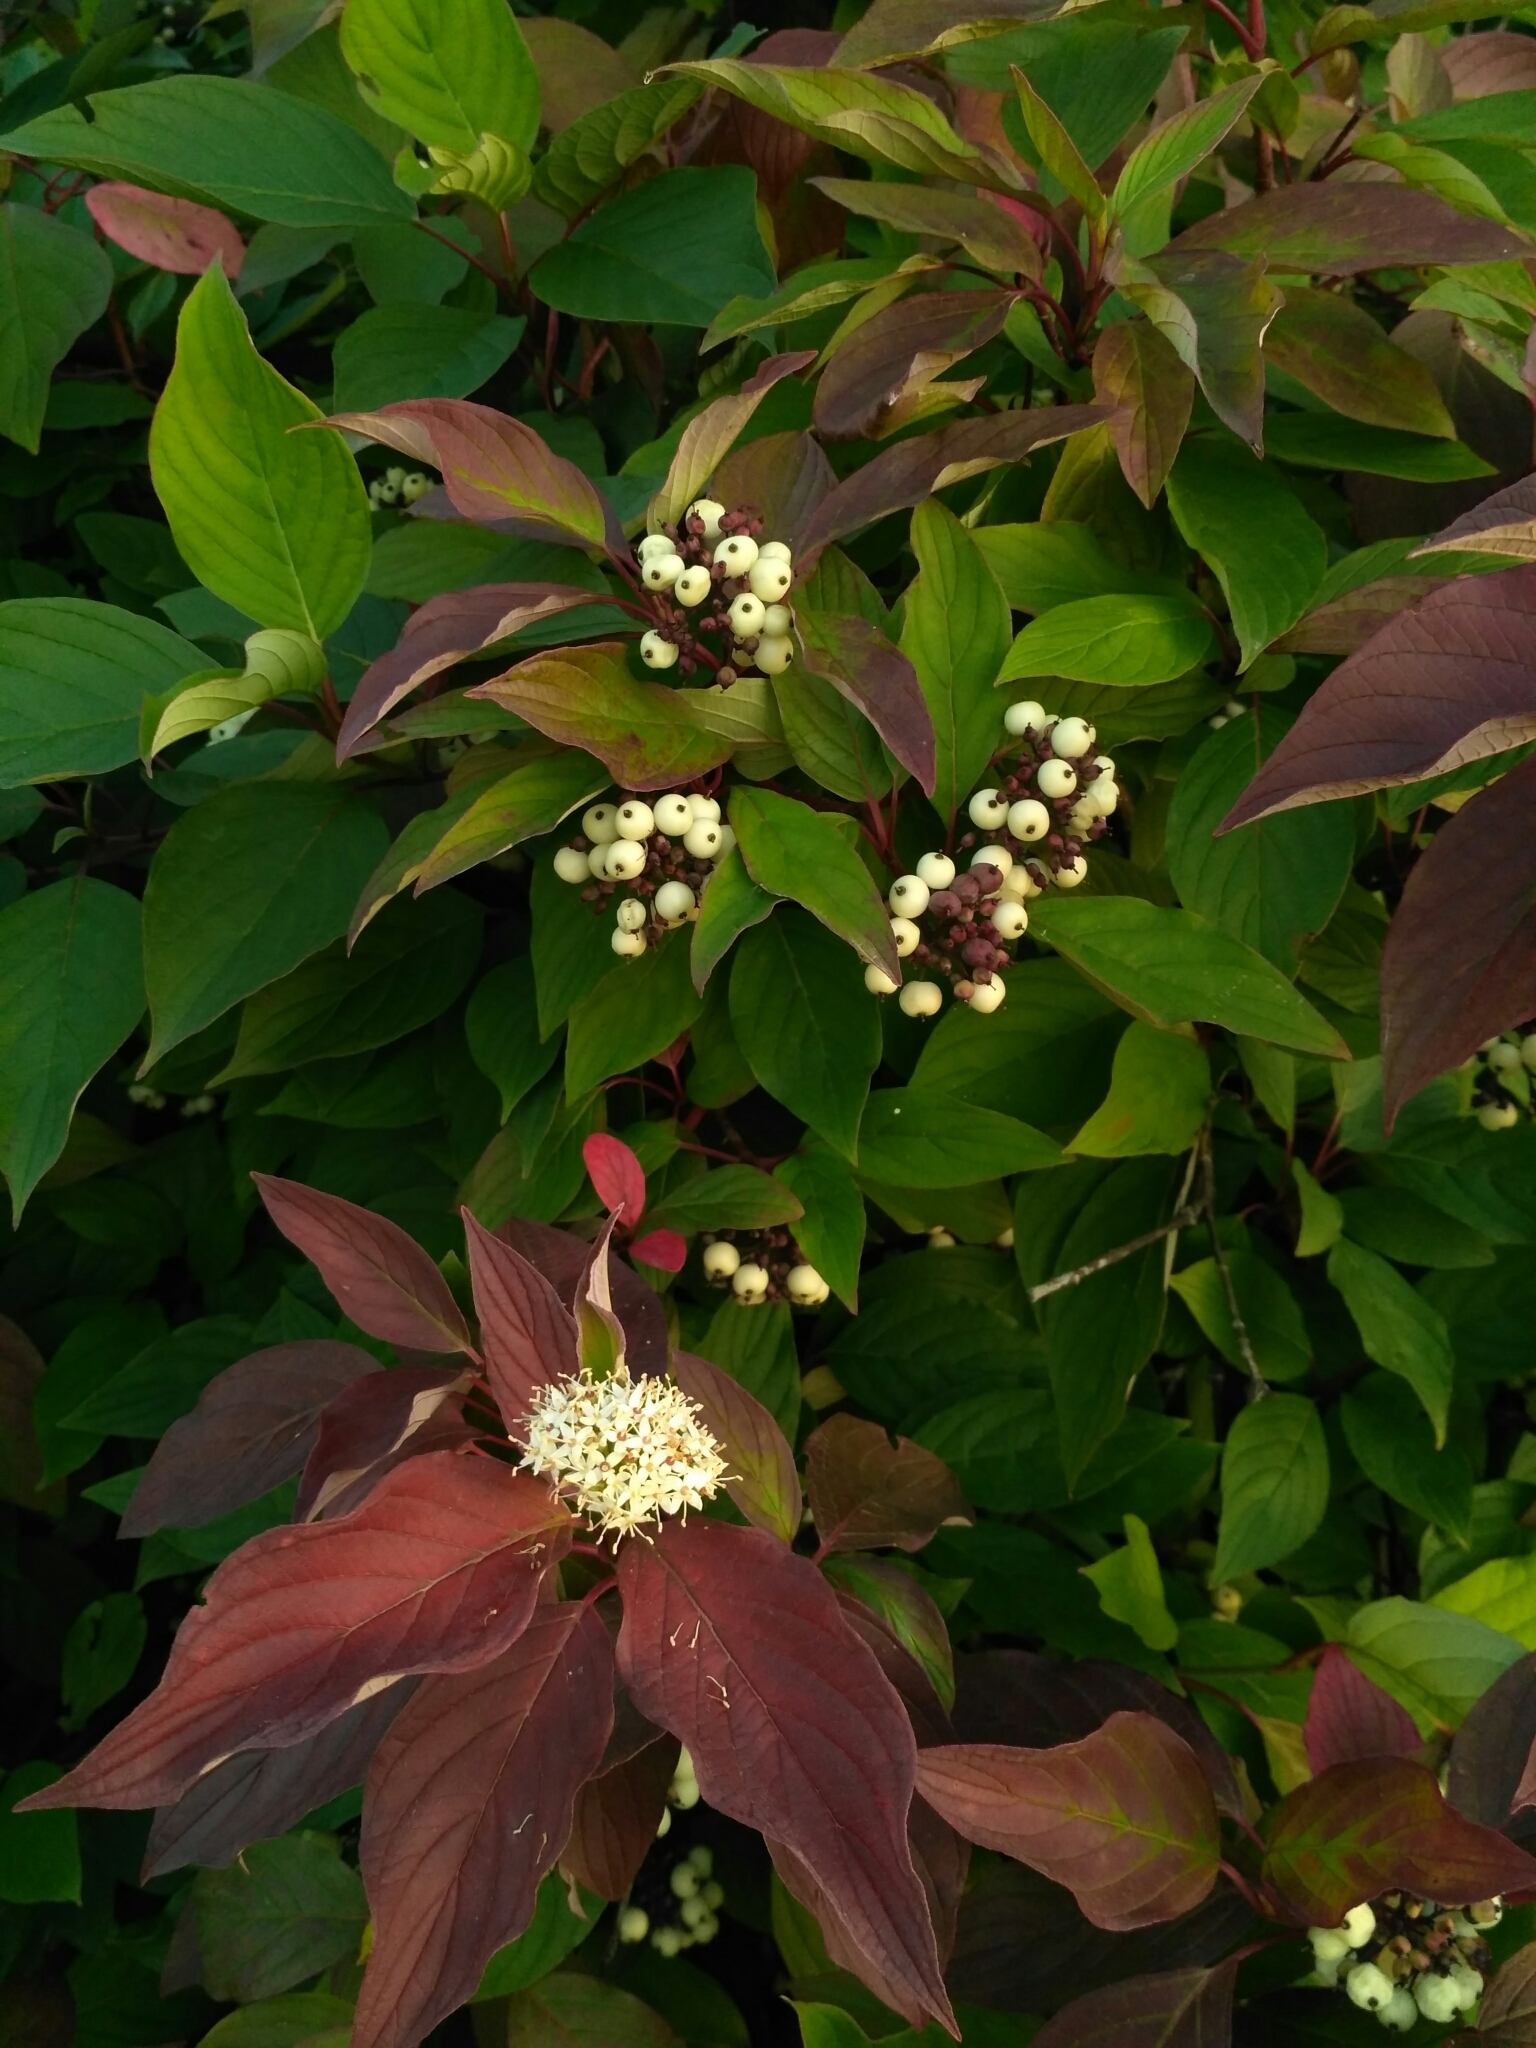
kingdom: Plantae
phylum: Tracheophyta
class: Magnoliopsida
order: Cornales
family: Cornaceae
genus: Cornus
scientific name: Cornus alba
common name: White dogwood
